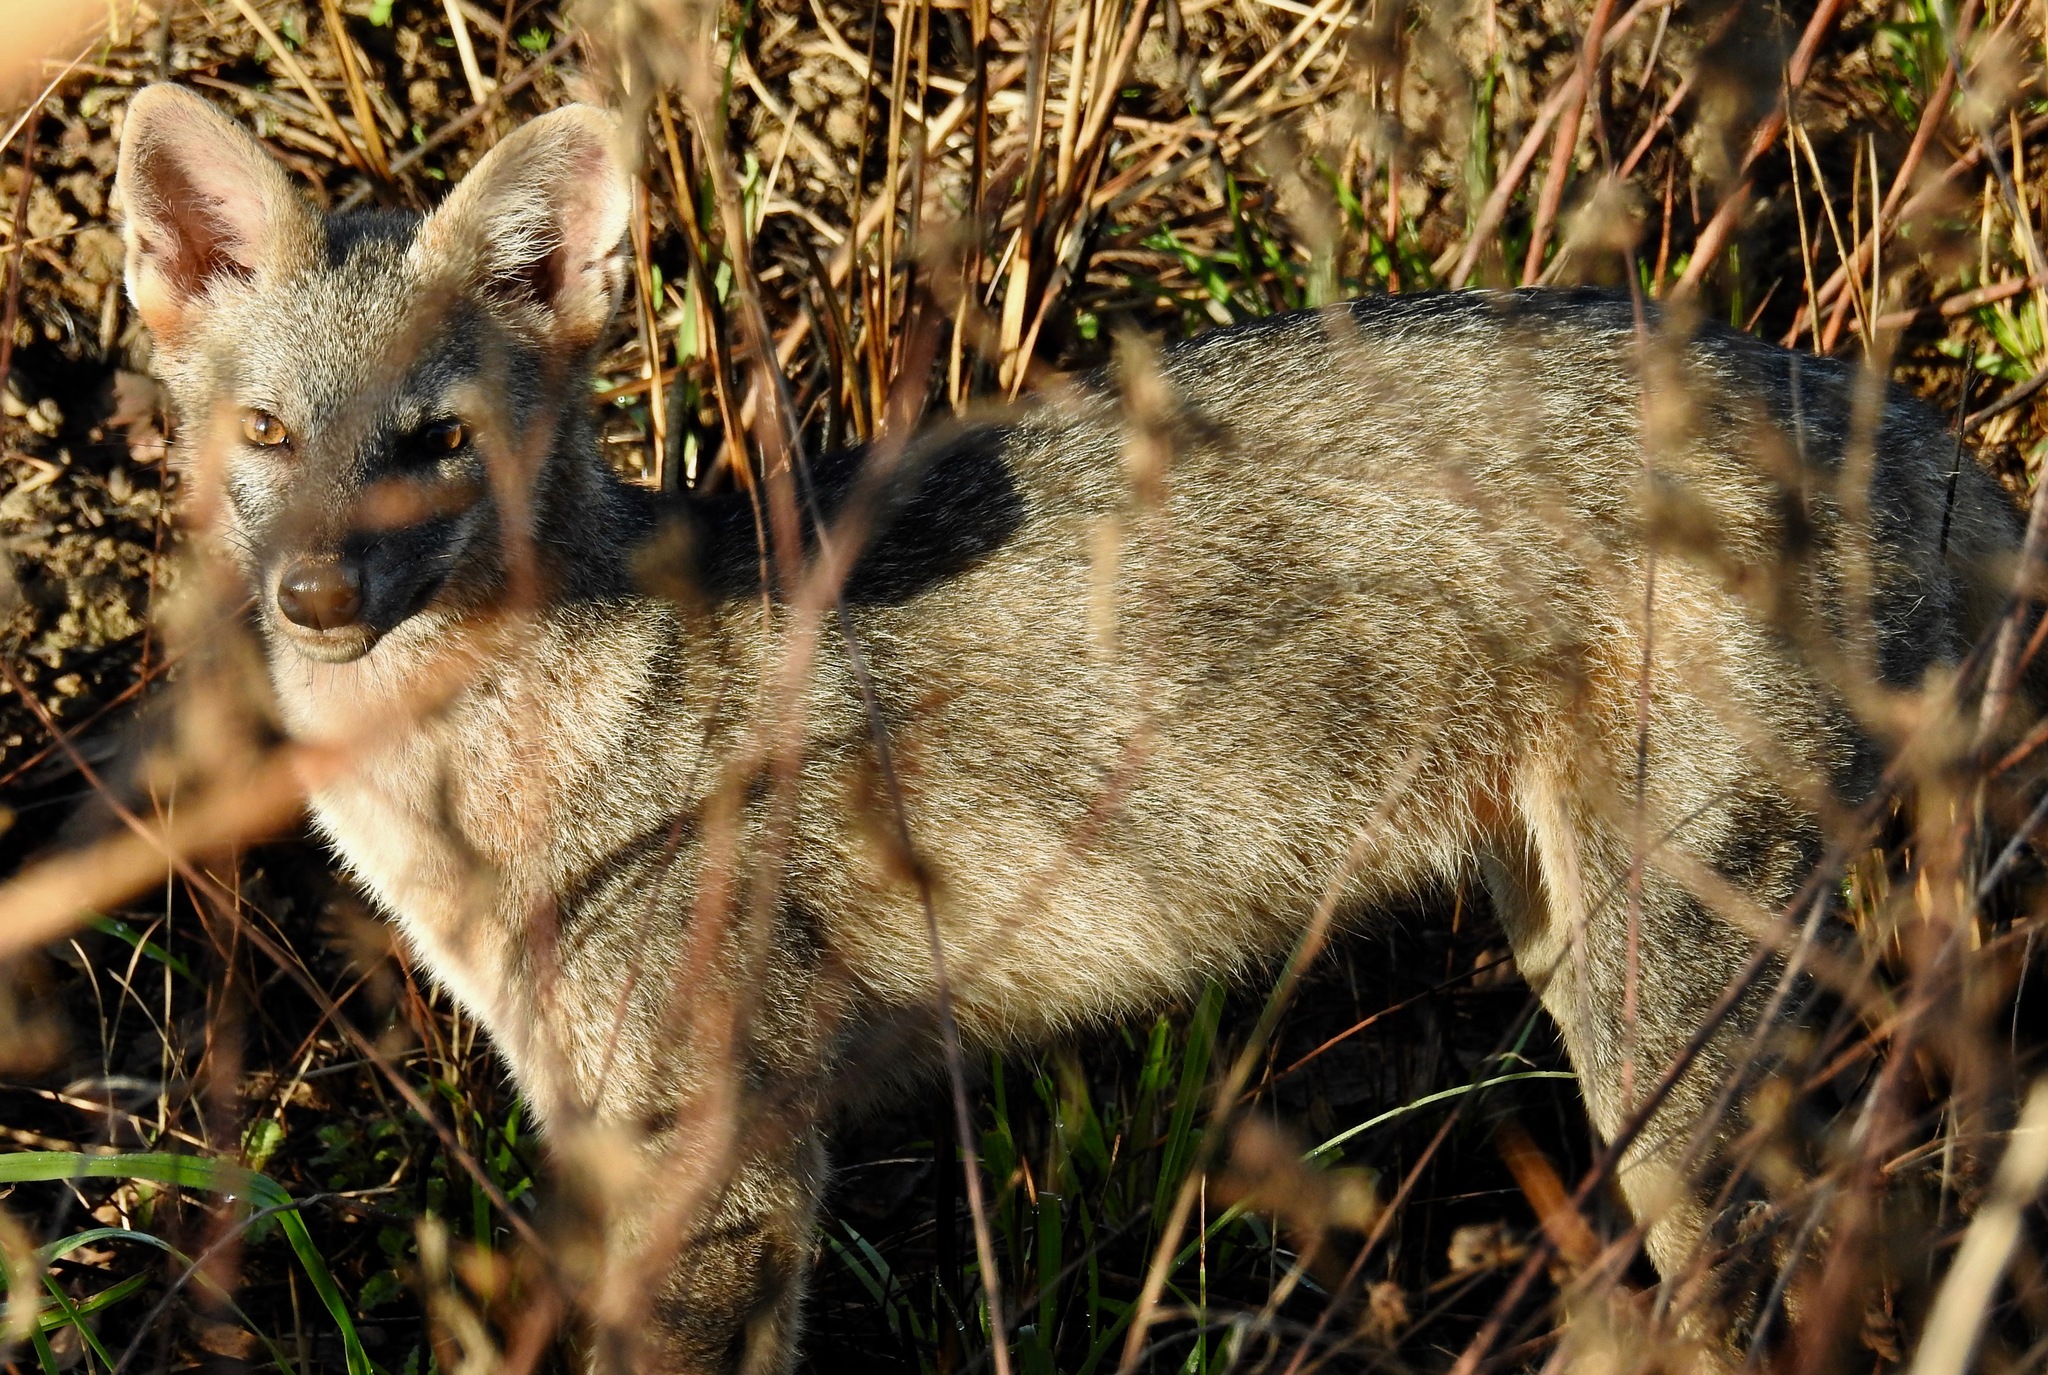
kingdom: Animalia
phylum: Chordata
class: Mammalia
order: Carnivora
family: Canidae
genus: Cerdocyon
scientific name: Cerdocyon thous
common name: Crab-eating fox
